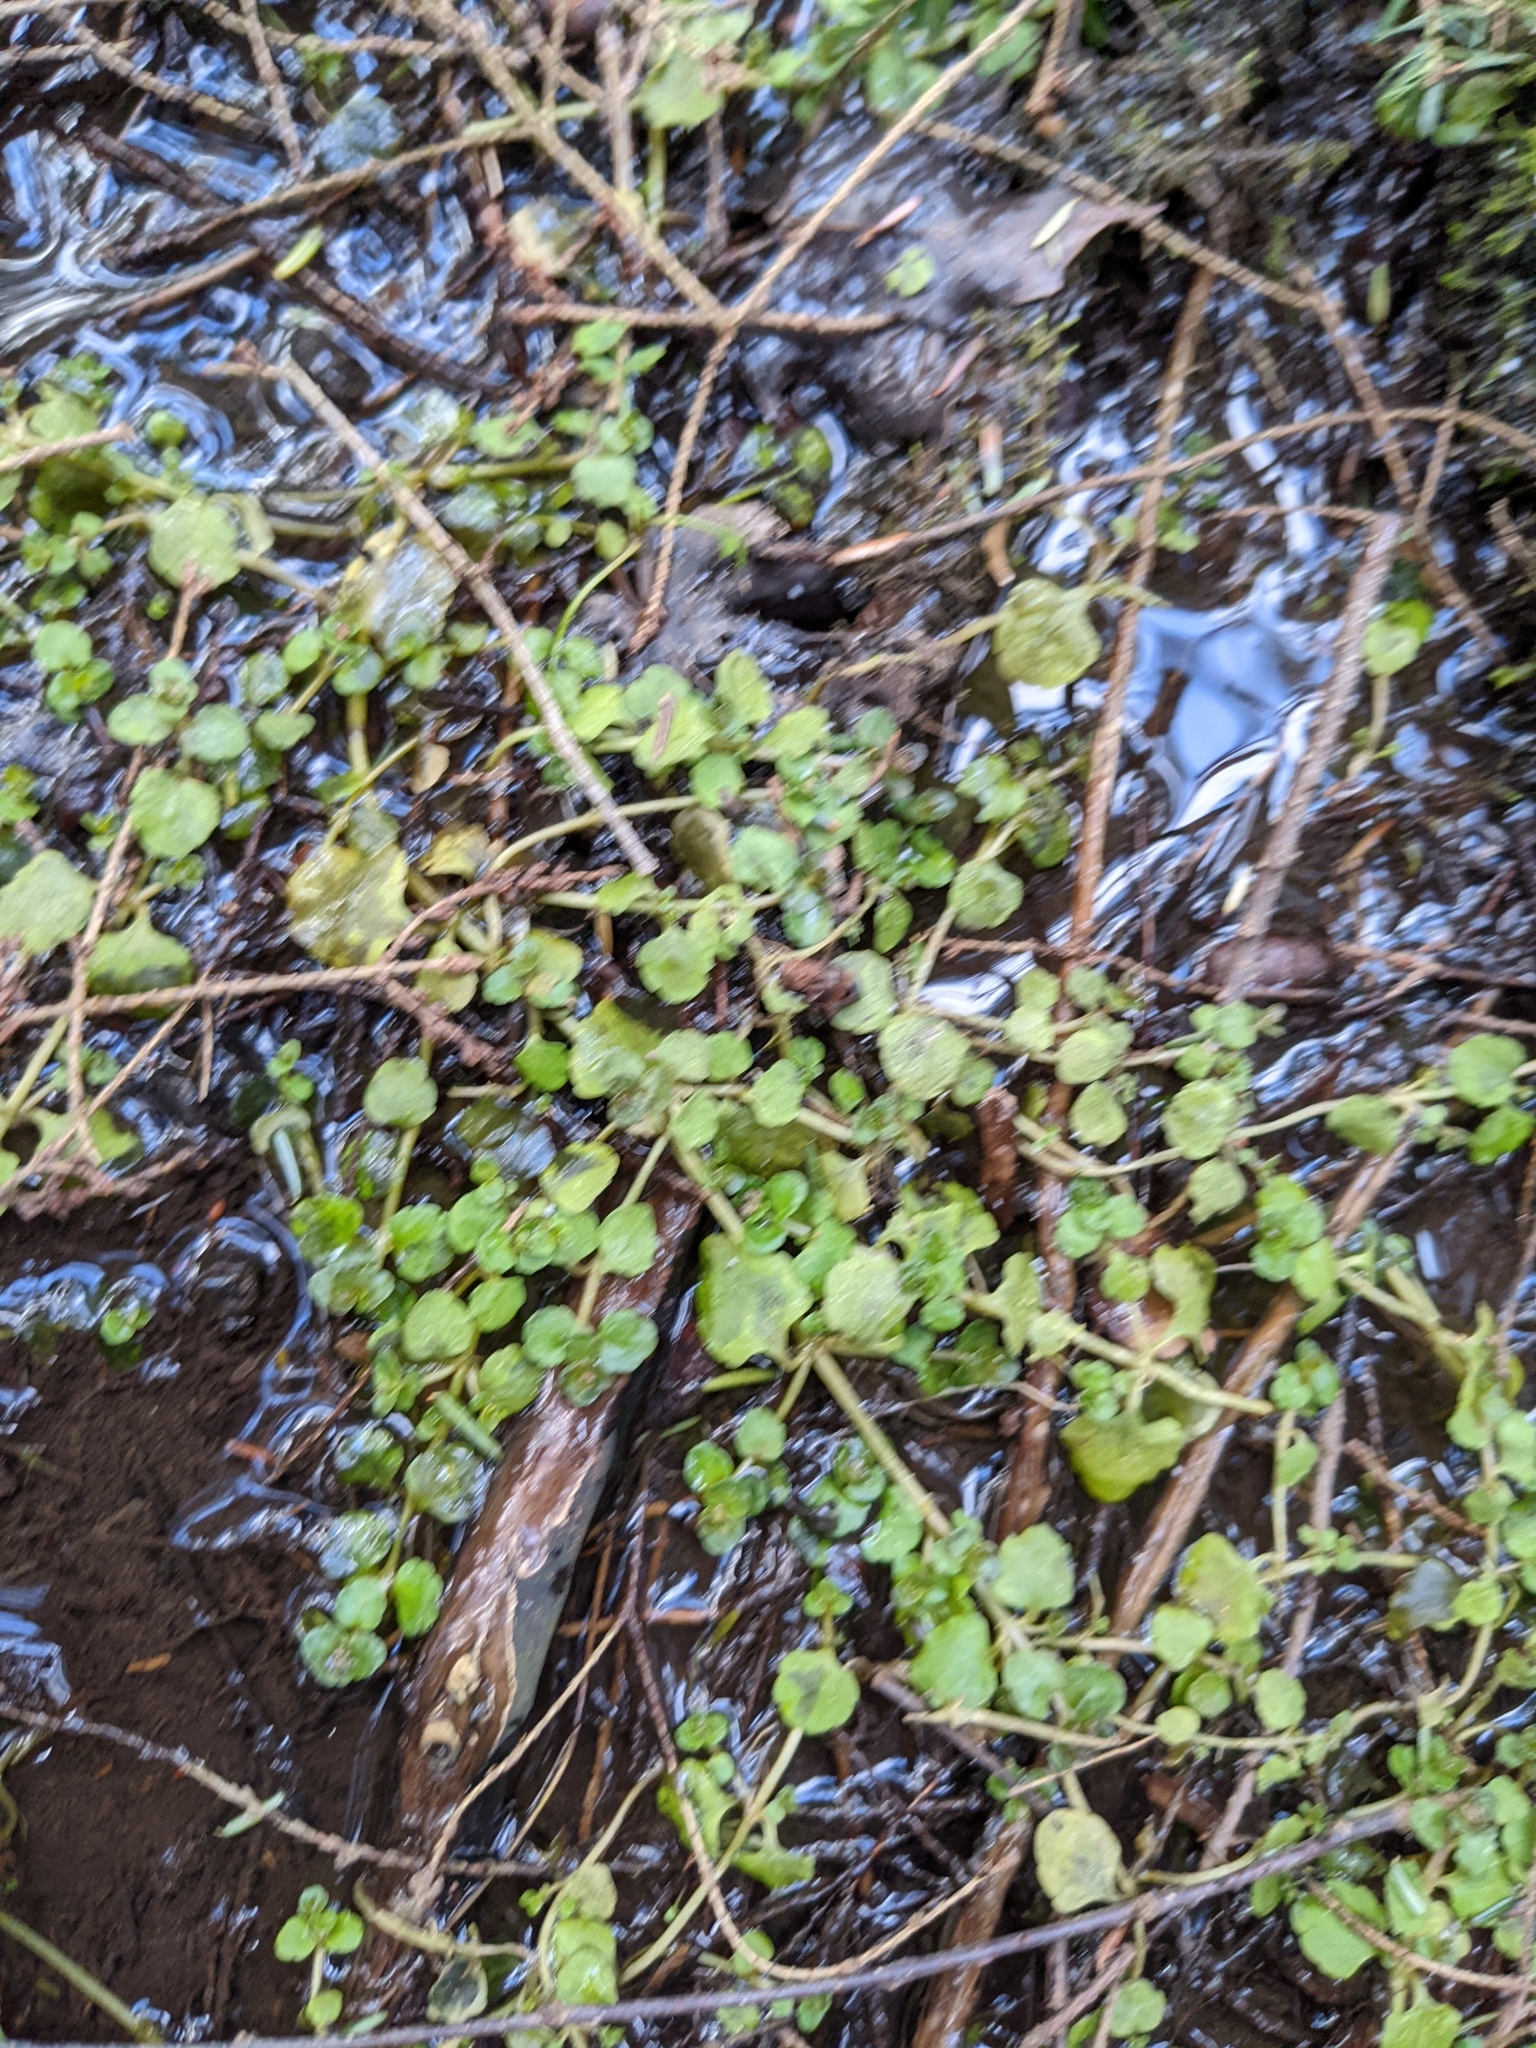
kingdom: Plantae
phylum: Tracheophyta
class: Magnoliopsida
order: Brassicales
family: Brassicaceae
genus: Nasturtium
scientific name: Nasturtium officinale
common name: Watercress
